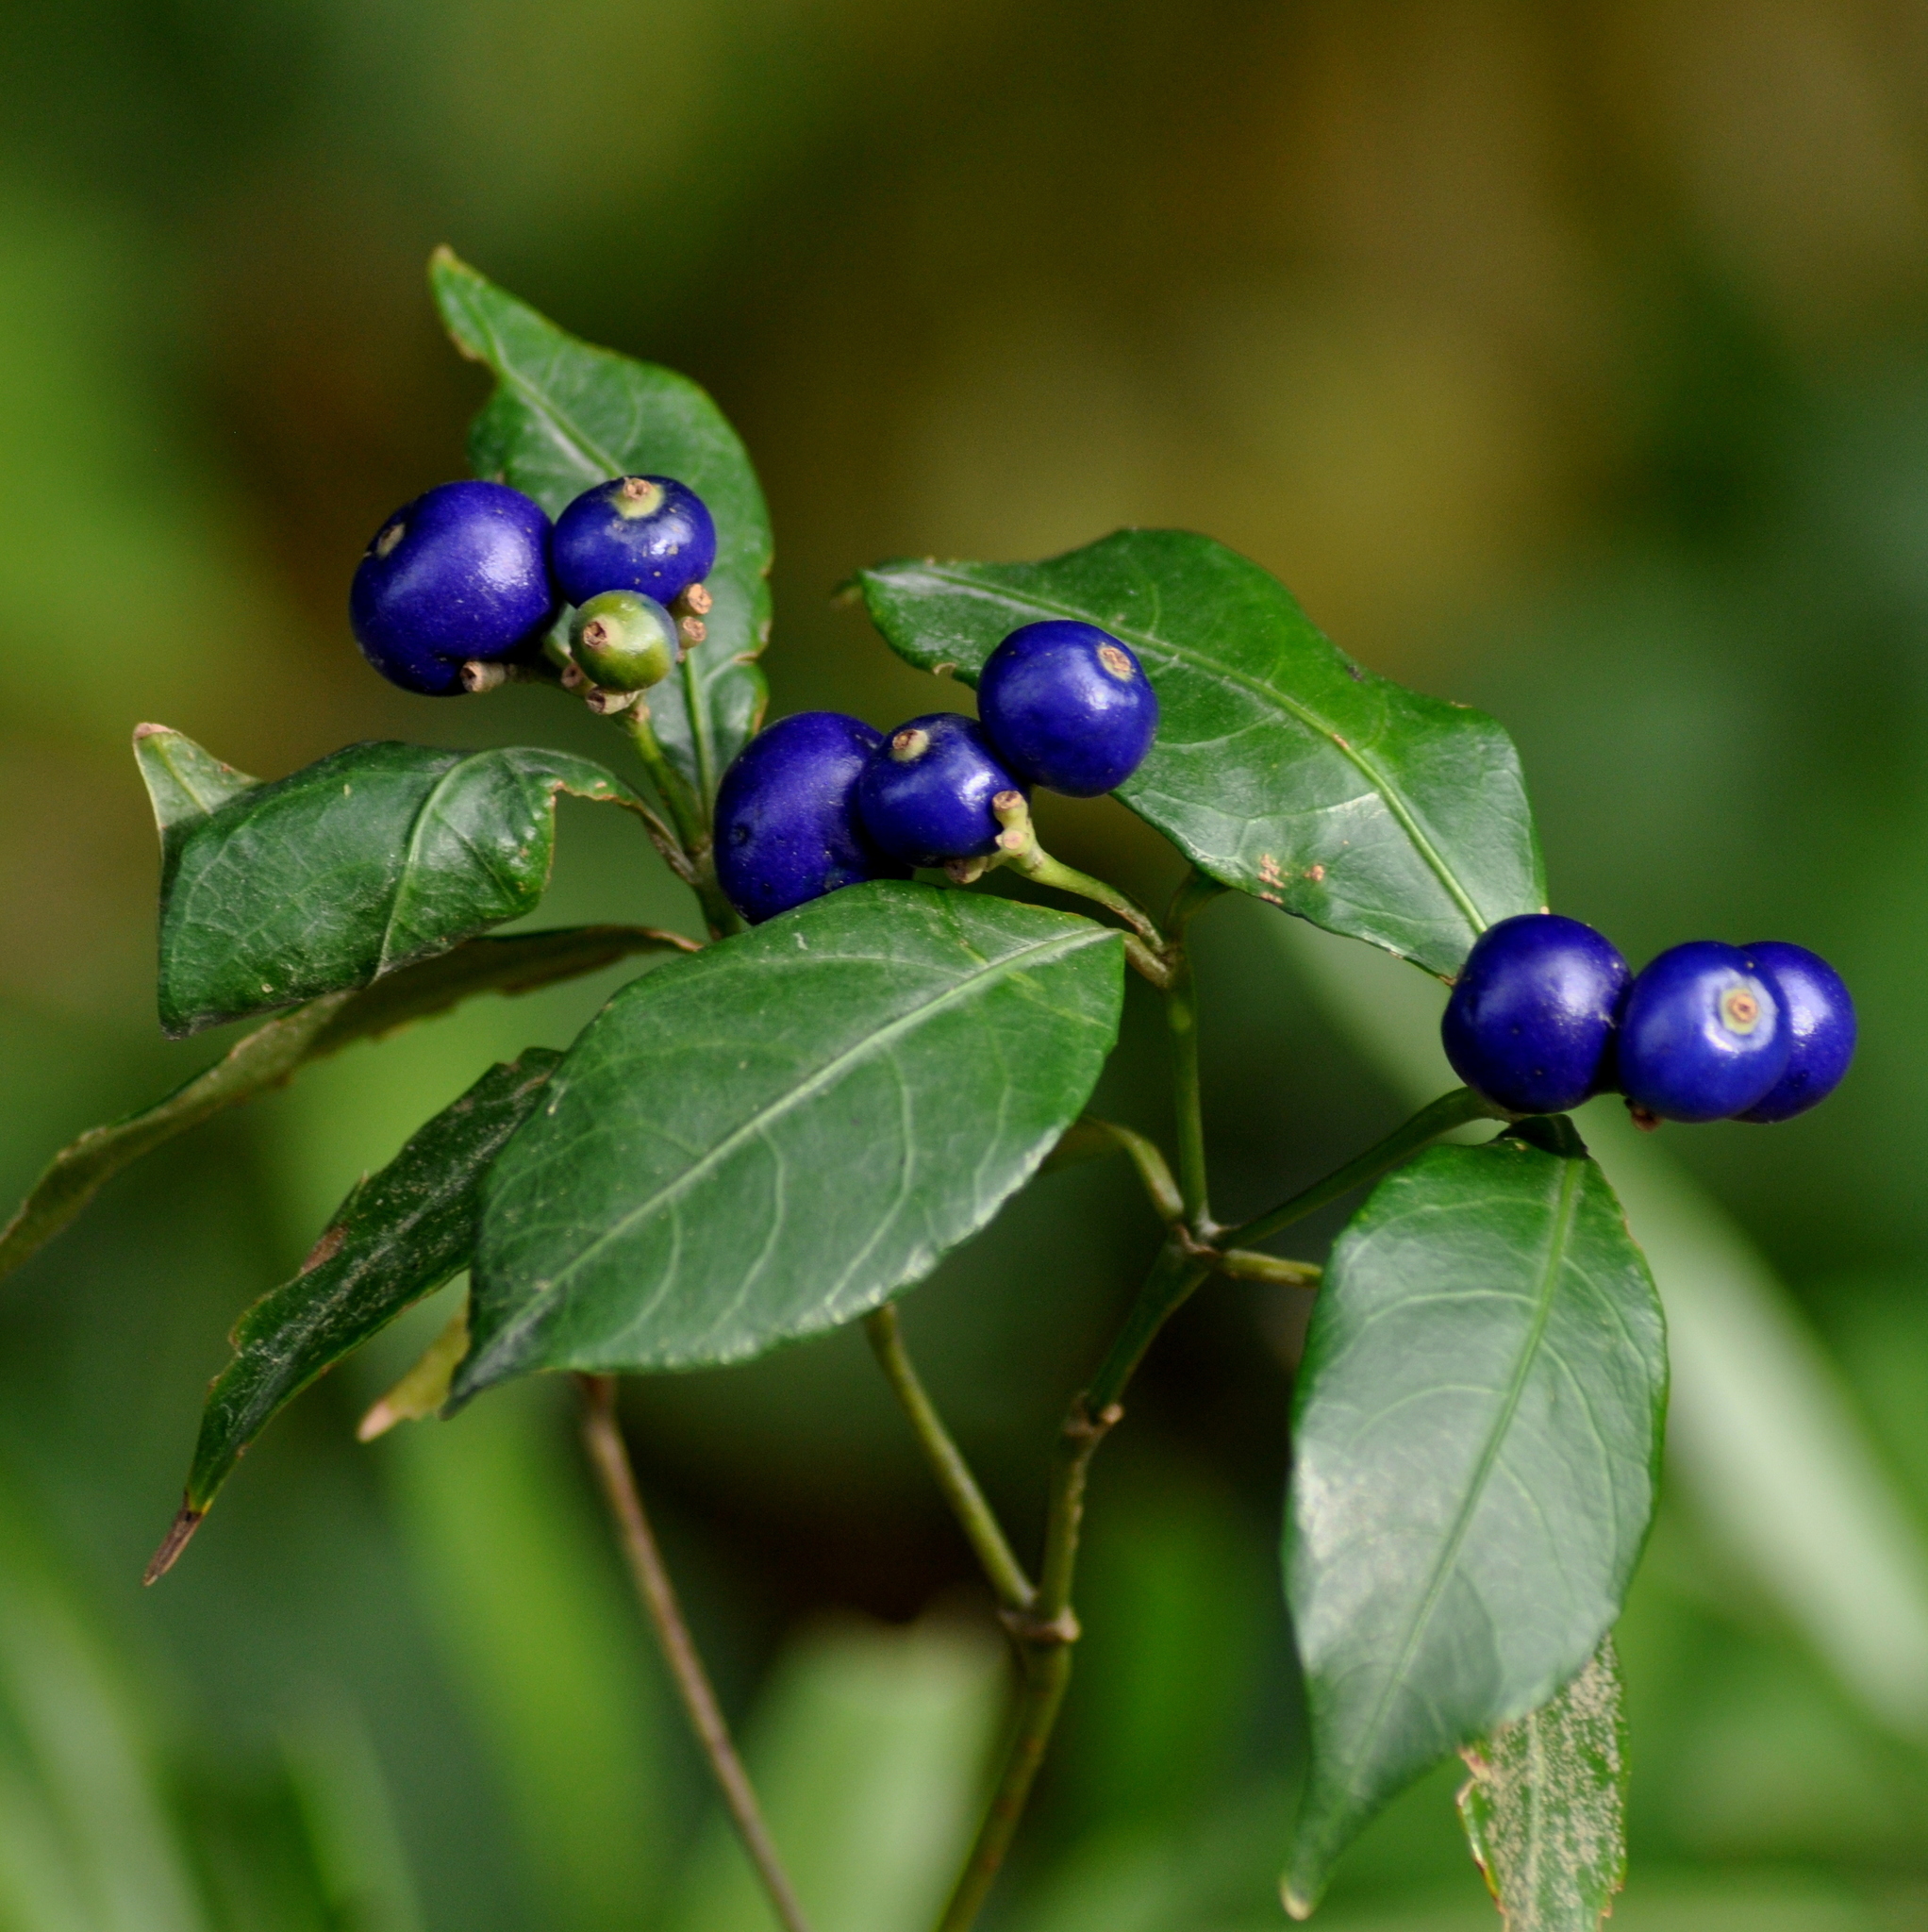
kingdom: Plantae
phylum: Tracheophyta
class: Magnoliopsida
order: Gentianales
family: Rubiaceae
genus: Psychotria
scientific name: Psychotria brachyceras
